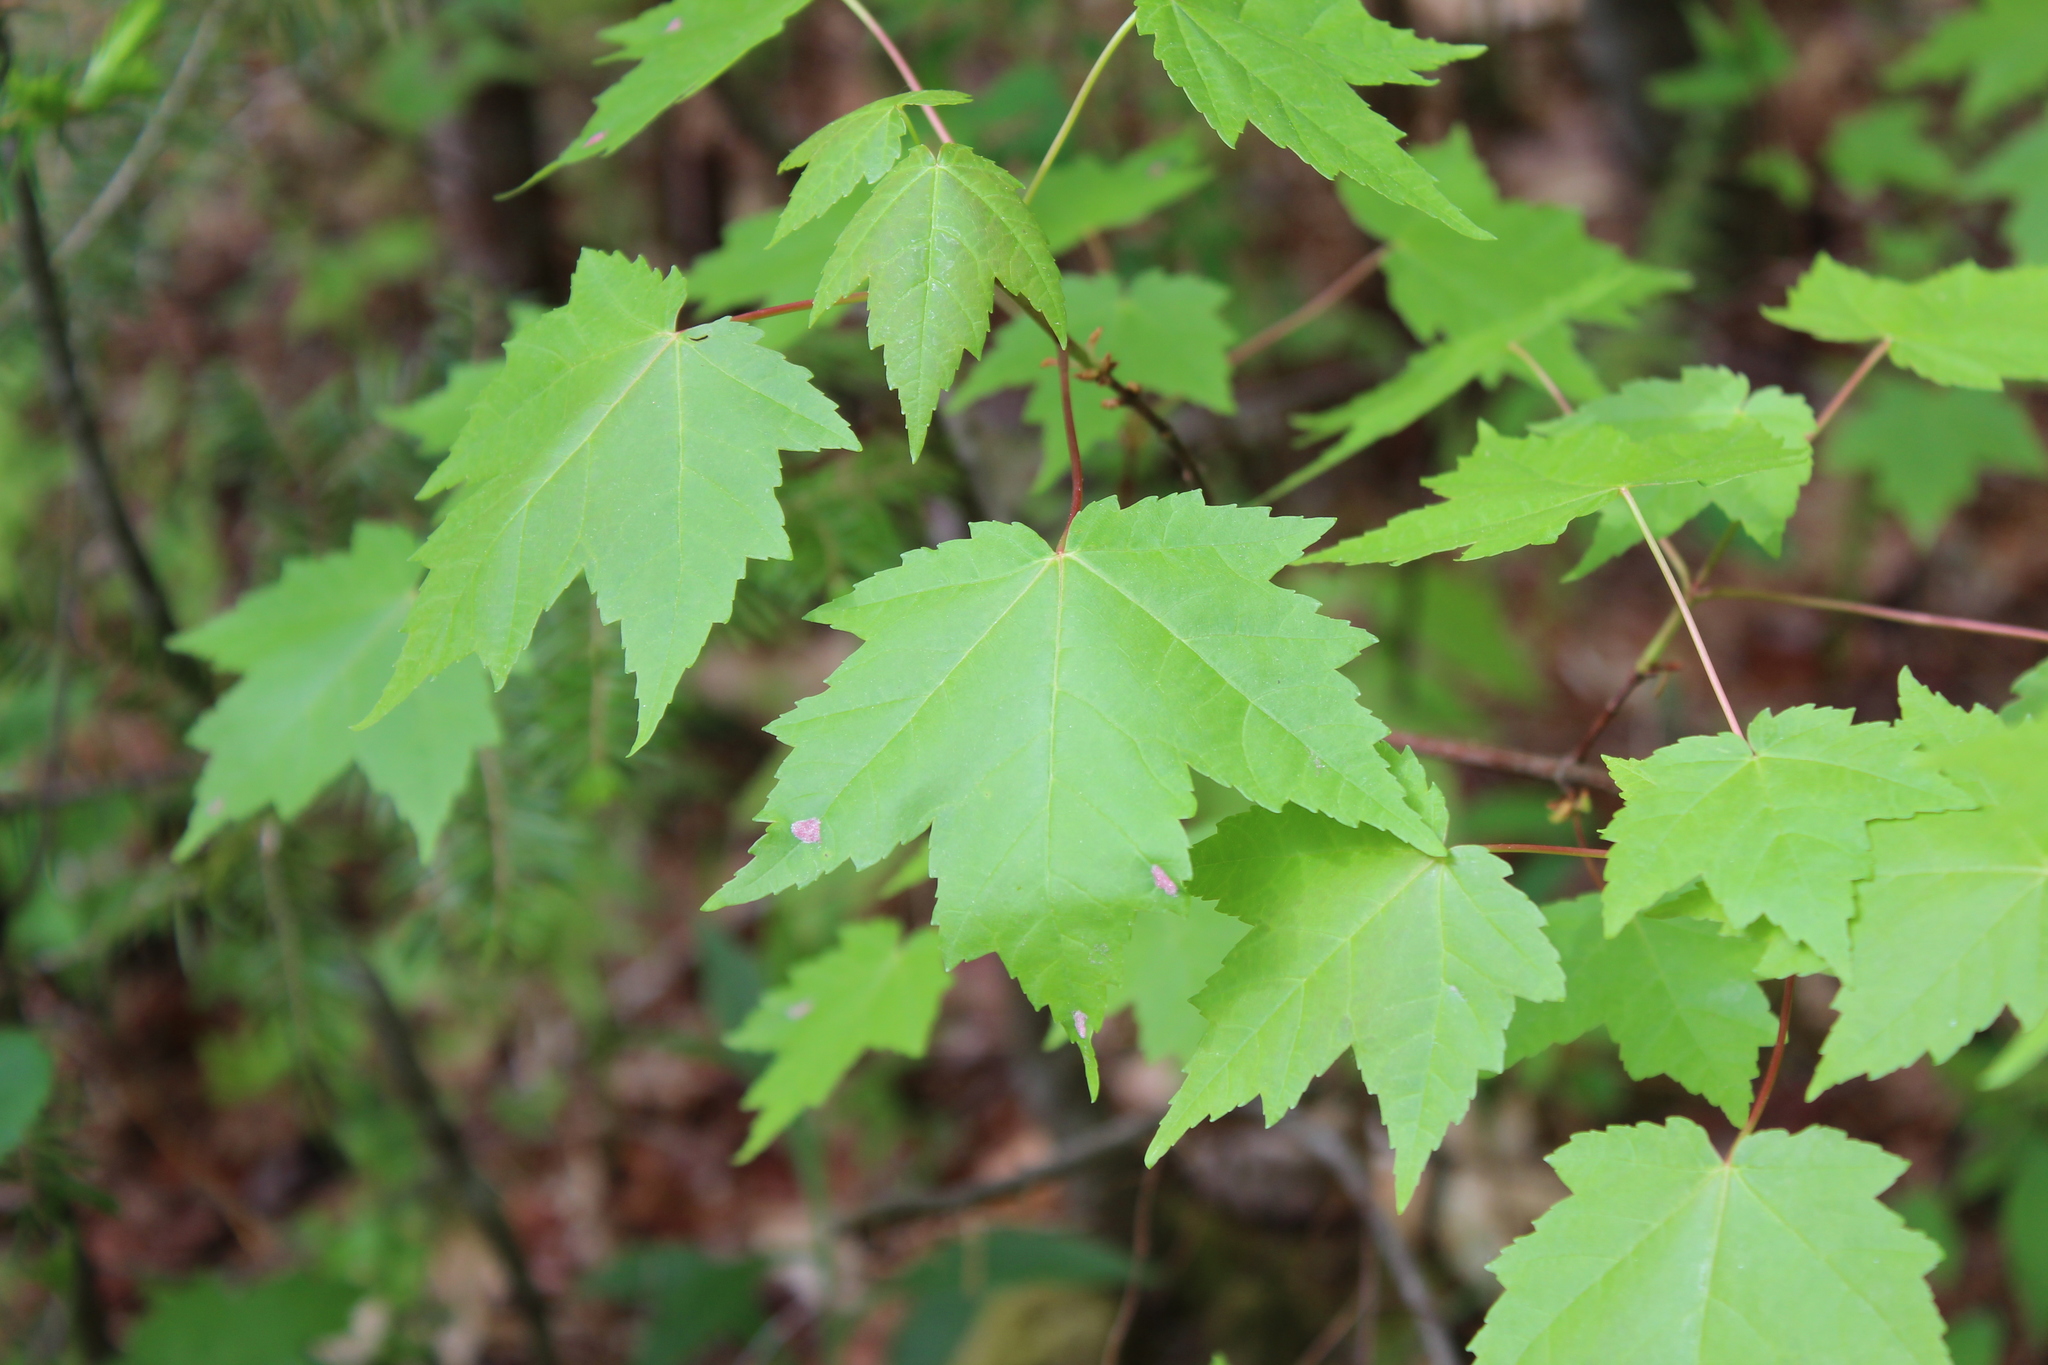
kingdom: Plantae
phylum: Tracheophyta
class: Magnoliopsida
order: Sapindales
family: Sapindaceae
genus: Acer
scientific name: Acer rubrum
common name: Red maple
